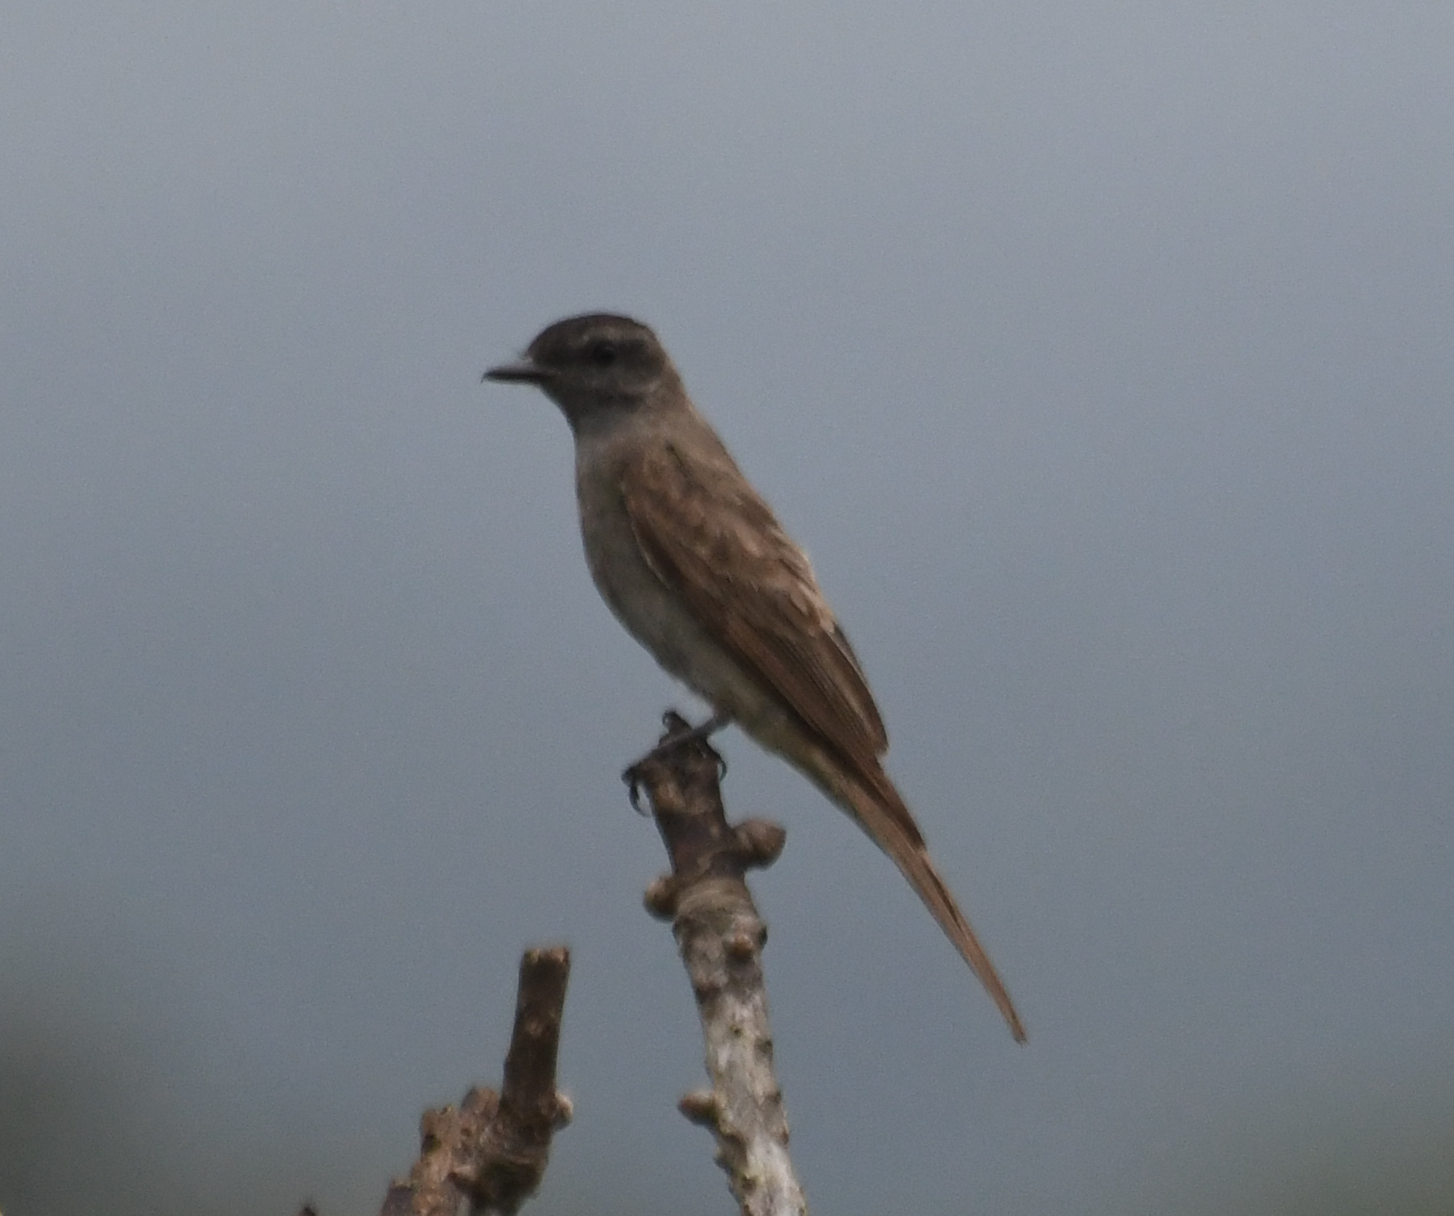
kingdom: Animalia
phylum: Chordata
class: Aves
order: Passeriformes
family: Tyrannidae
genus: Empidonomus
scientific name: Empidonomus aurantioatrocristatus
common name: Crowned slaty flycatcher
